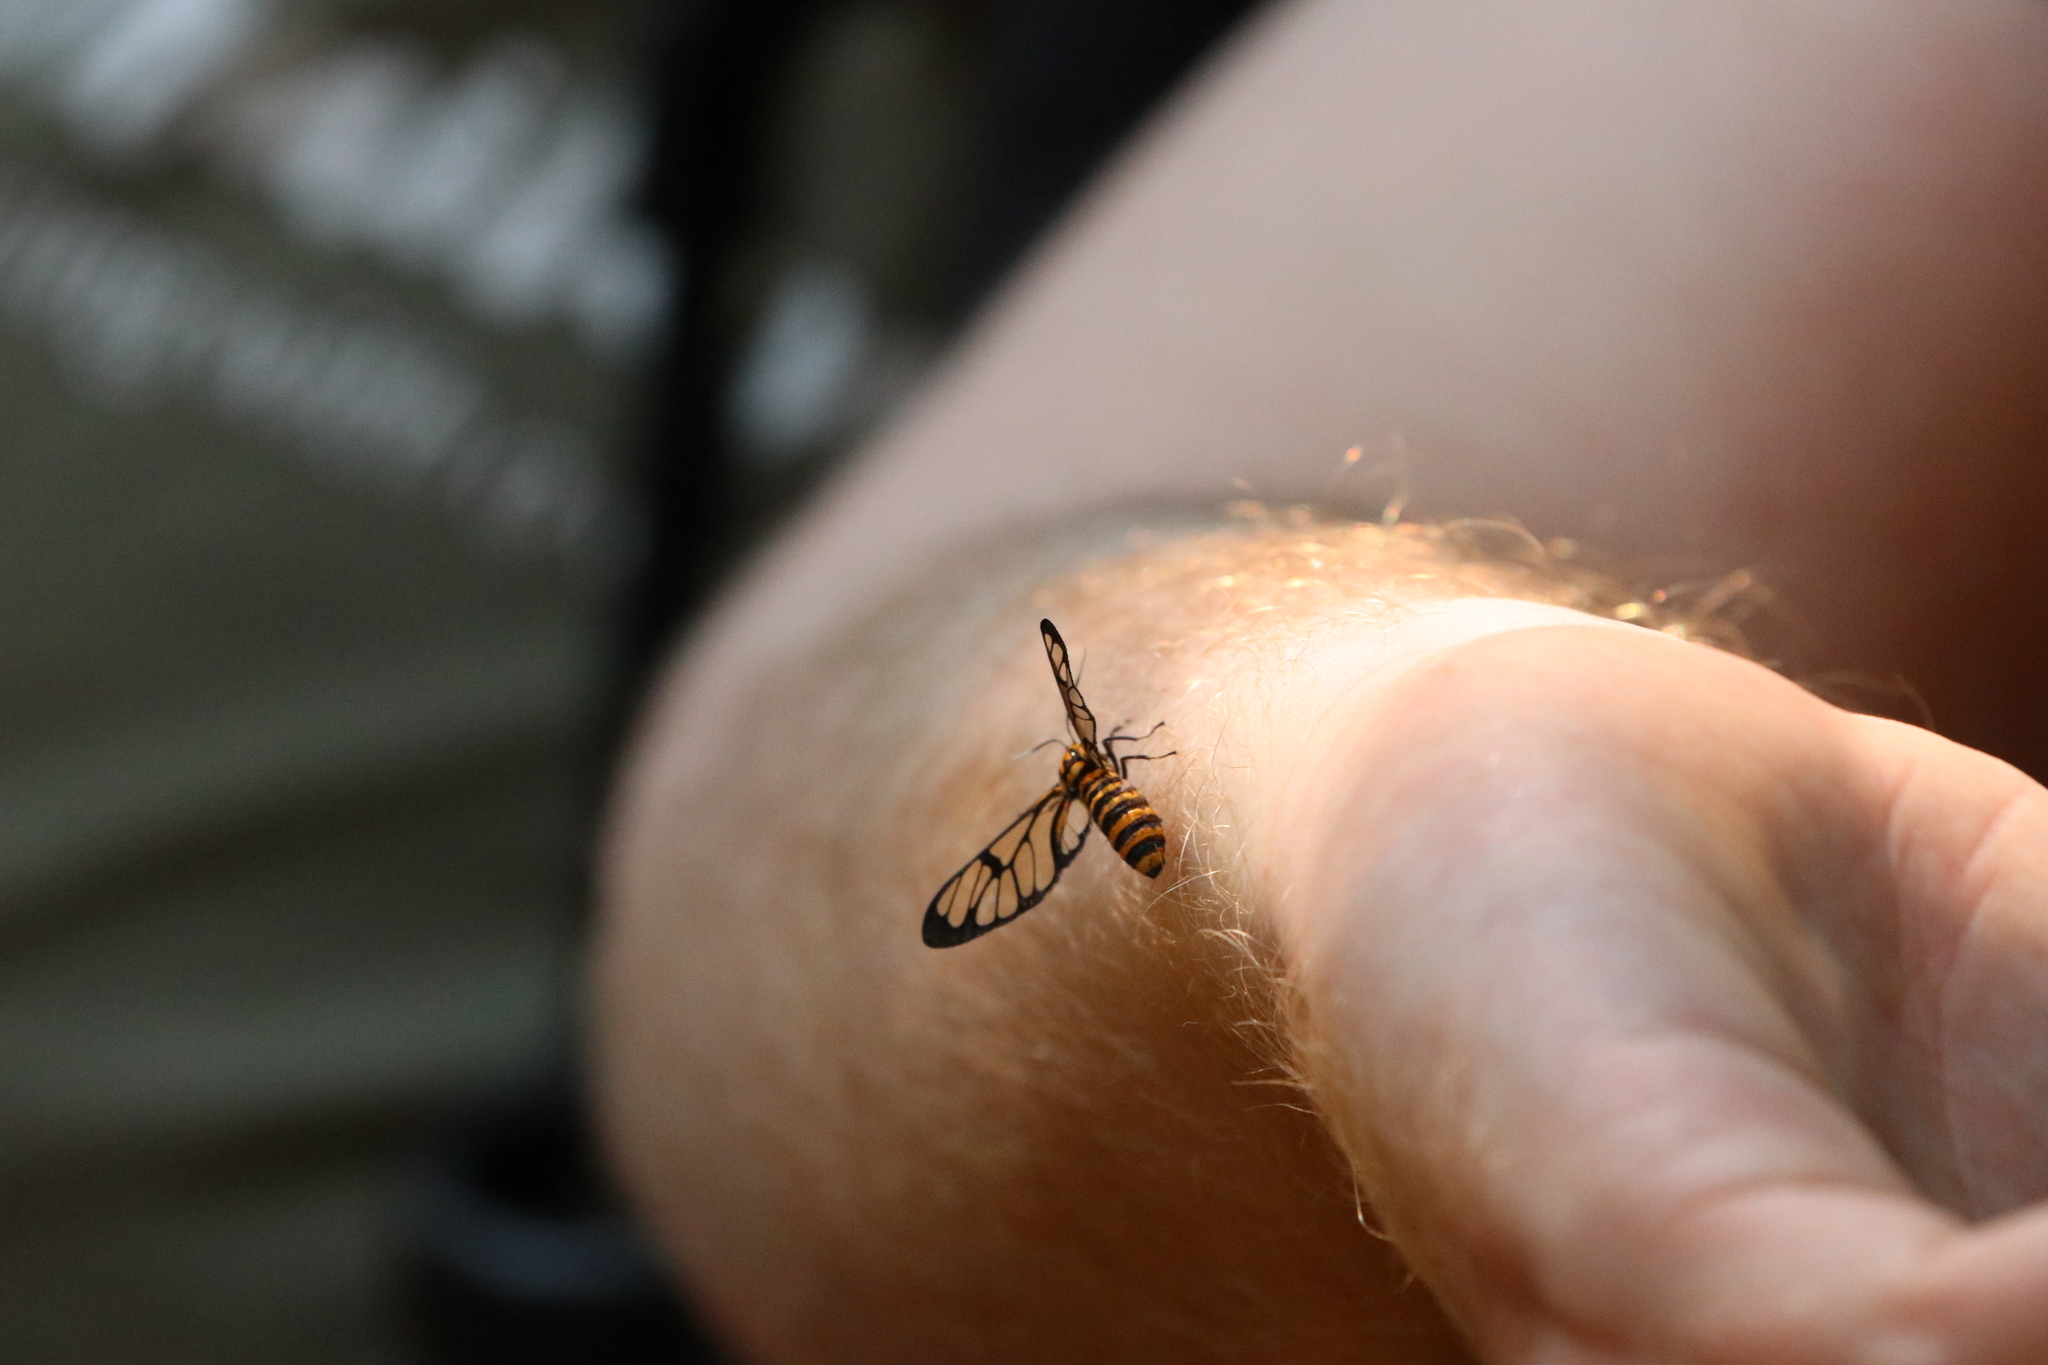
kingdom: Animalia
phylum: Arthropoda
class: Insecta
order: Lepidoptera
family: Erebidae
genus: Amata
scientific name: Amata huebneri
